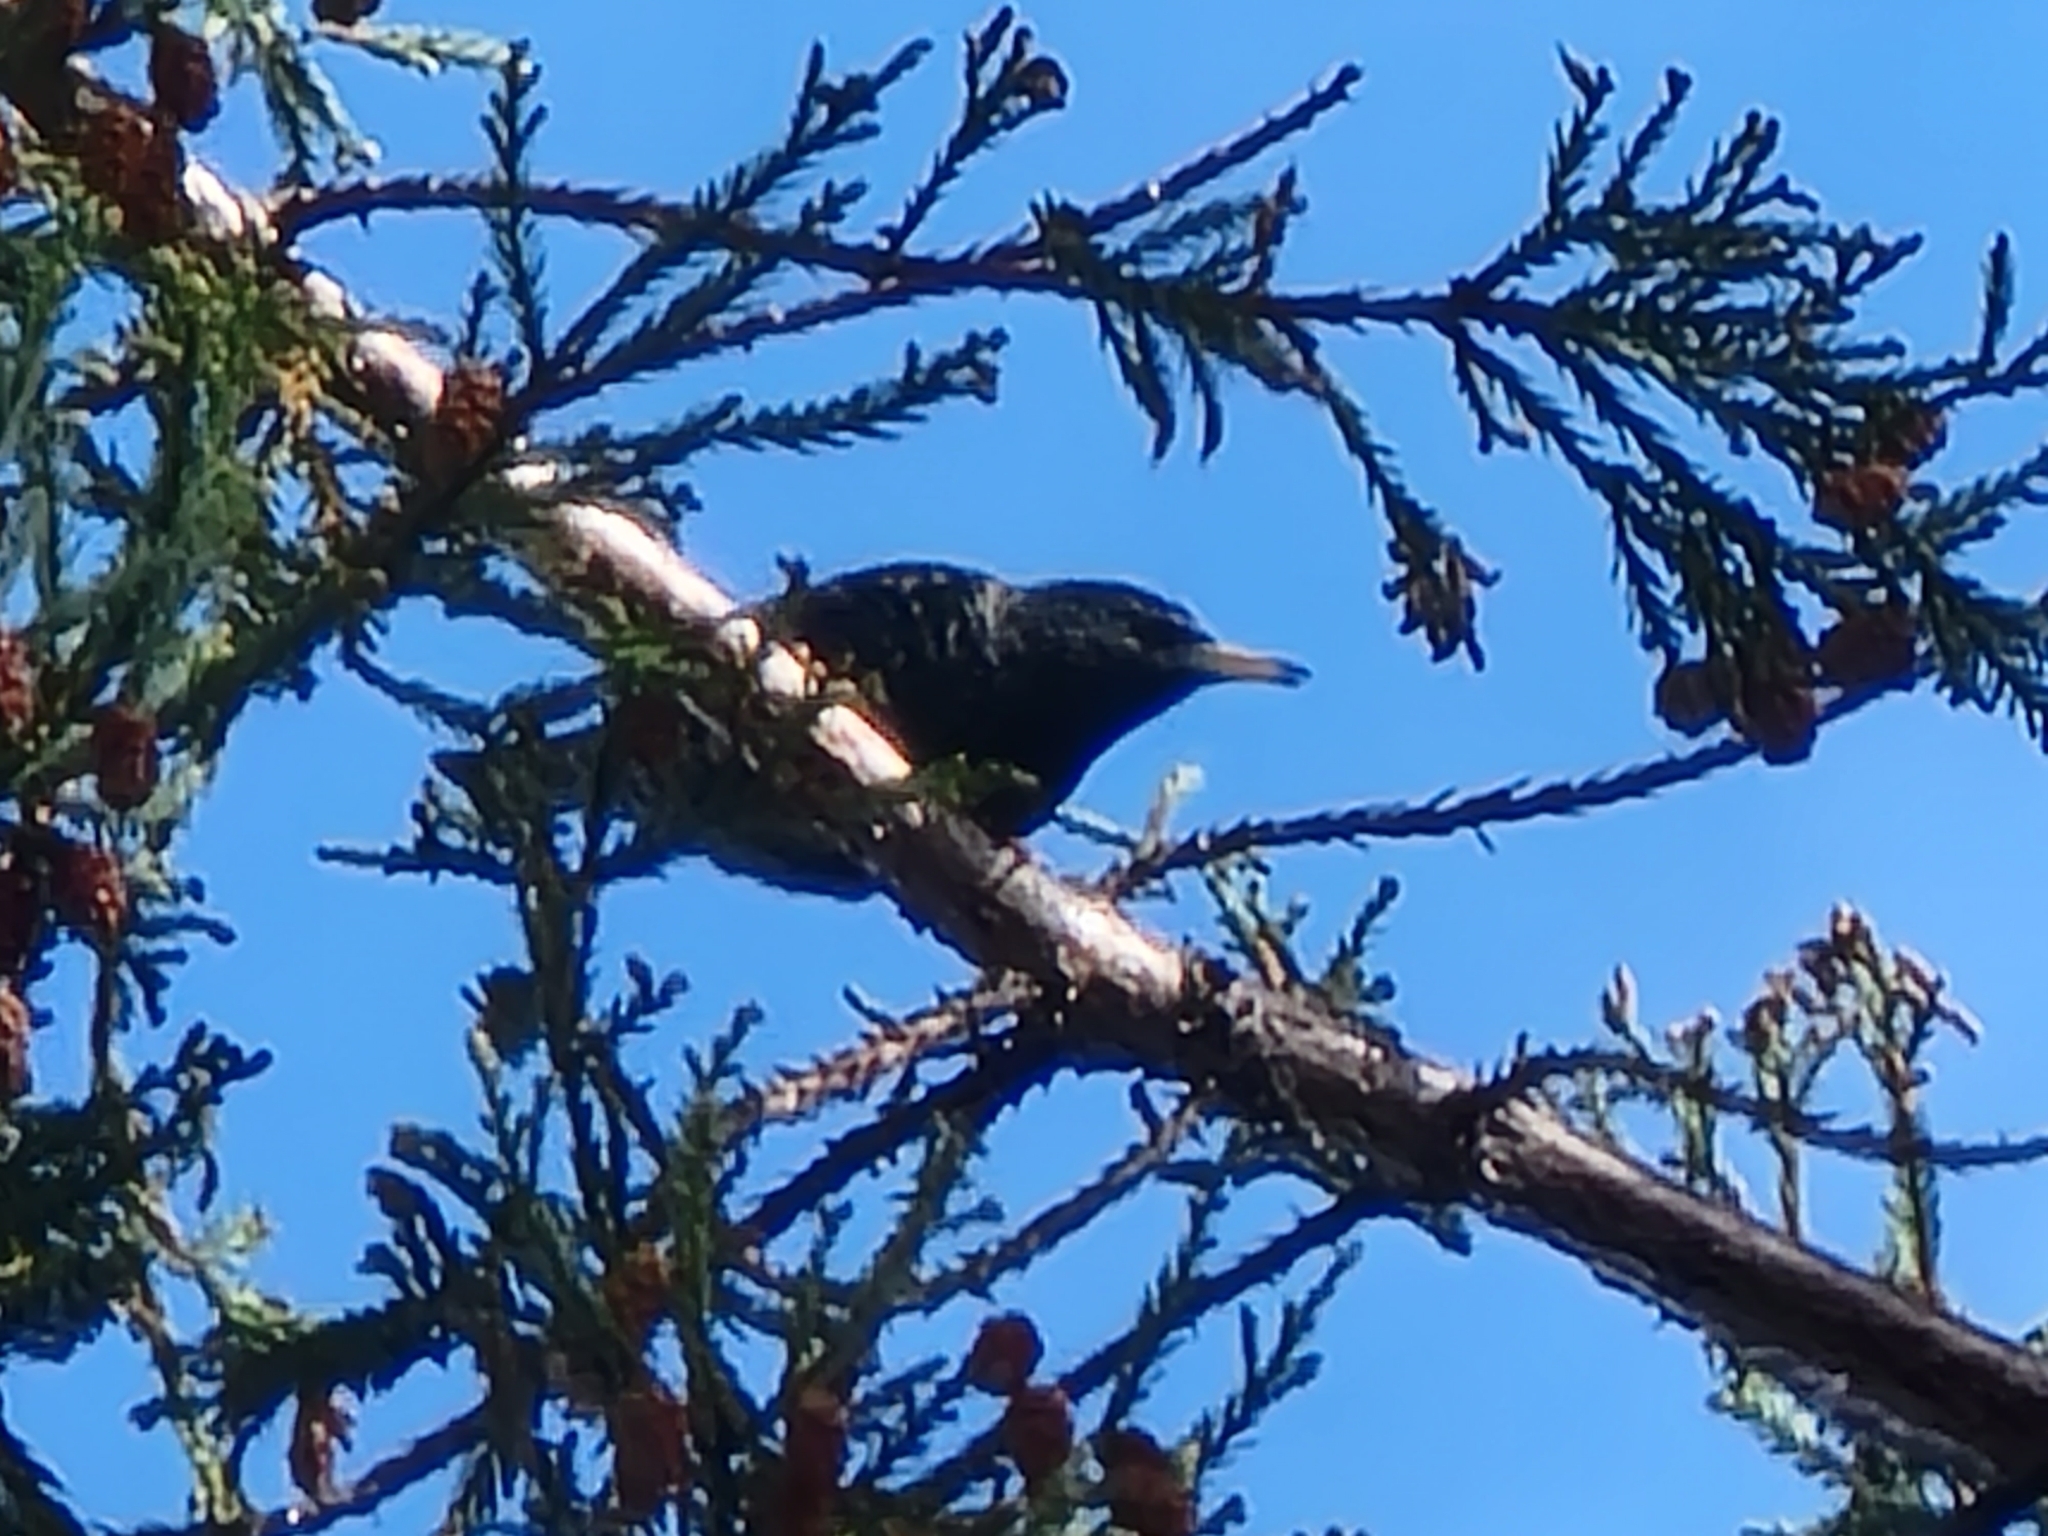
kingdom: Animalia
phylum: Chordata
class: Aves
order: Passeriformes
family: Sturnidae
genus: Sturnus
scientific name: Sturnus vulgaris
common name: Common starling
